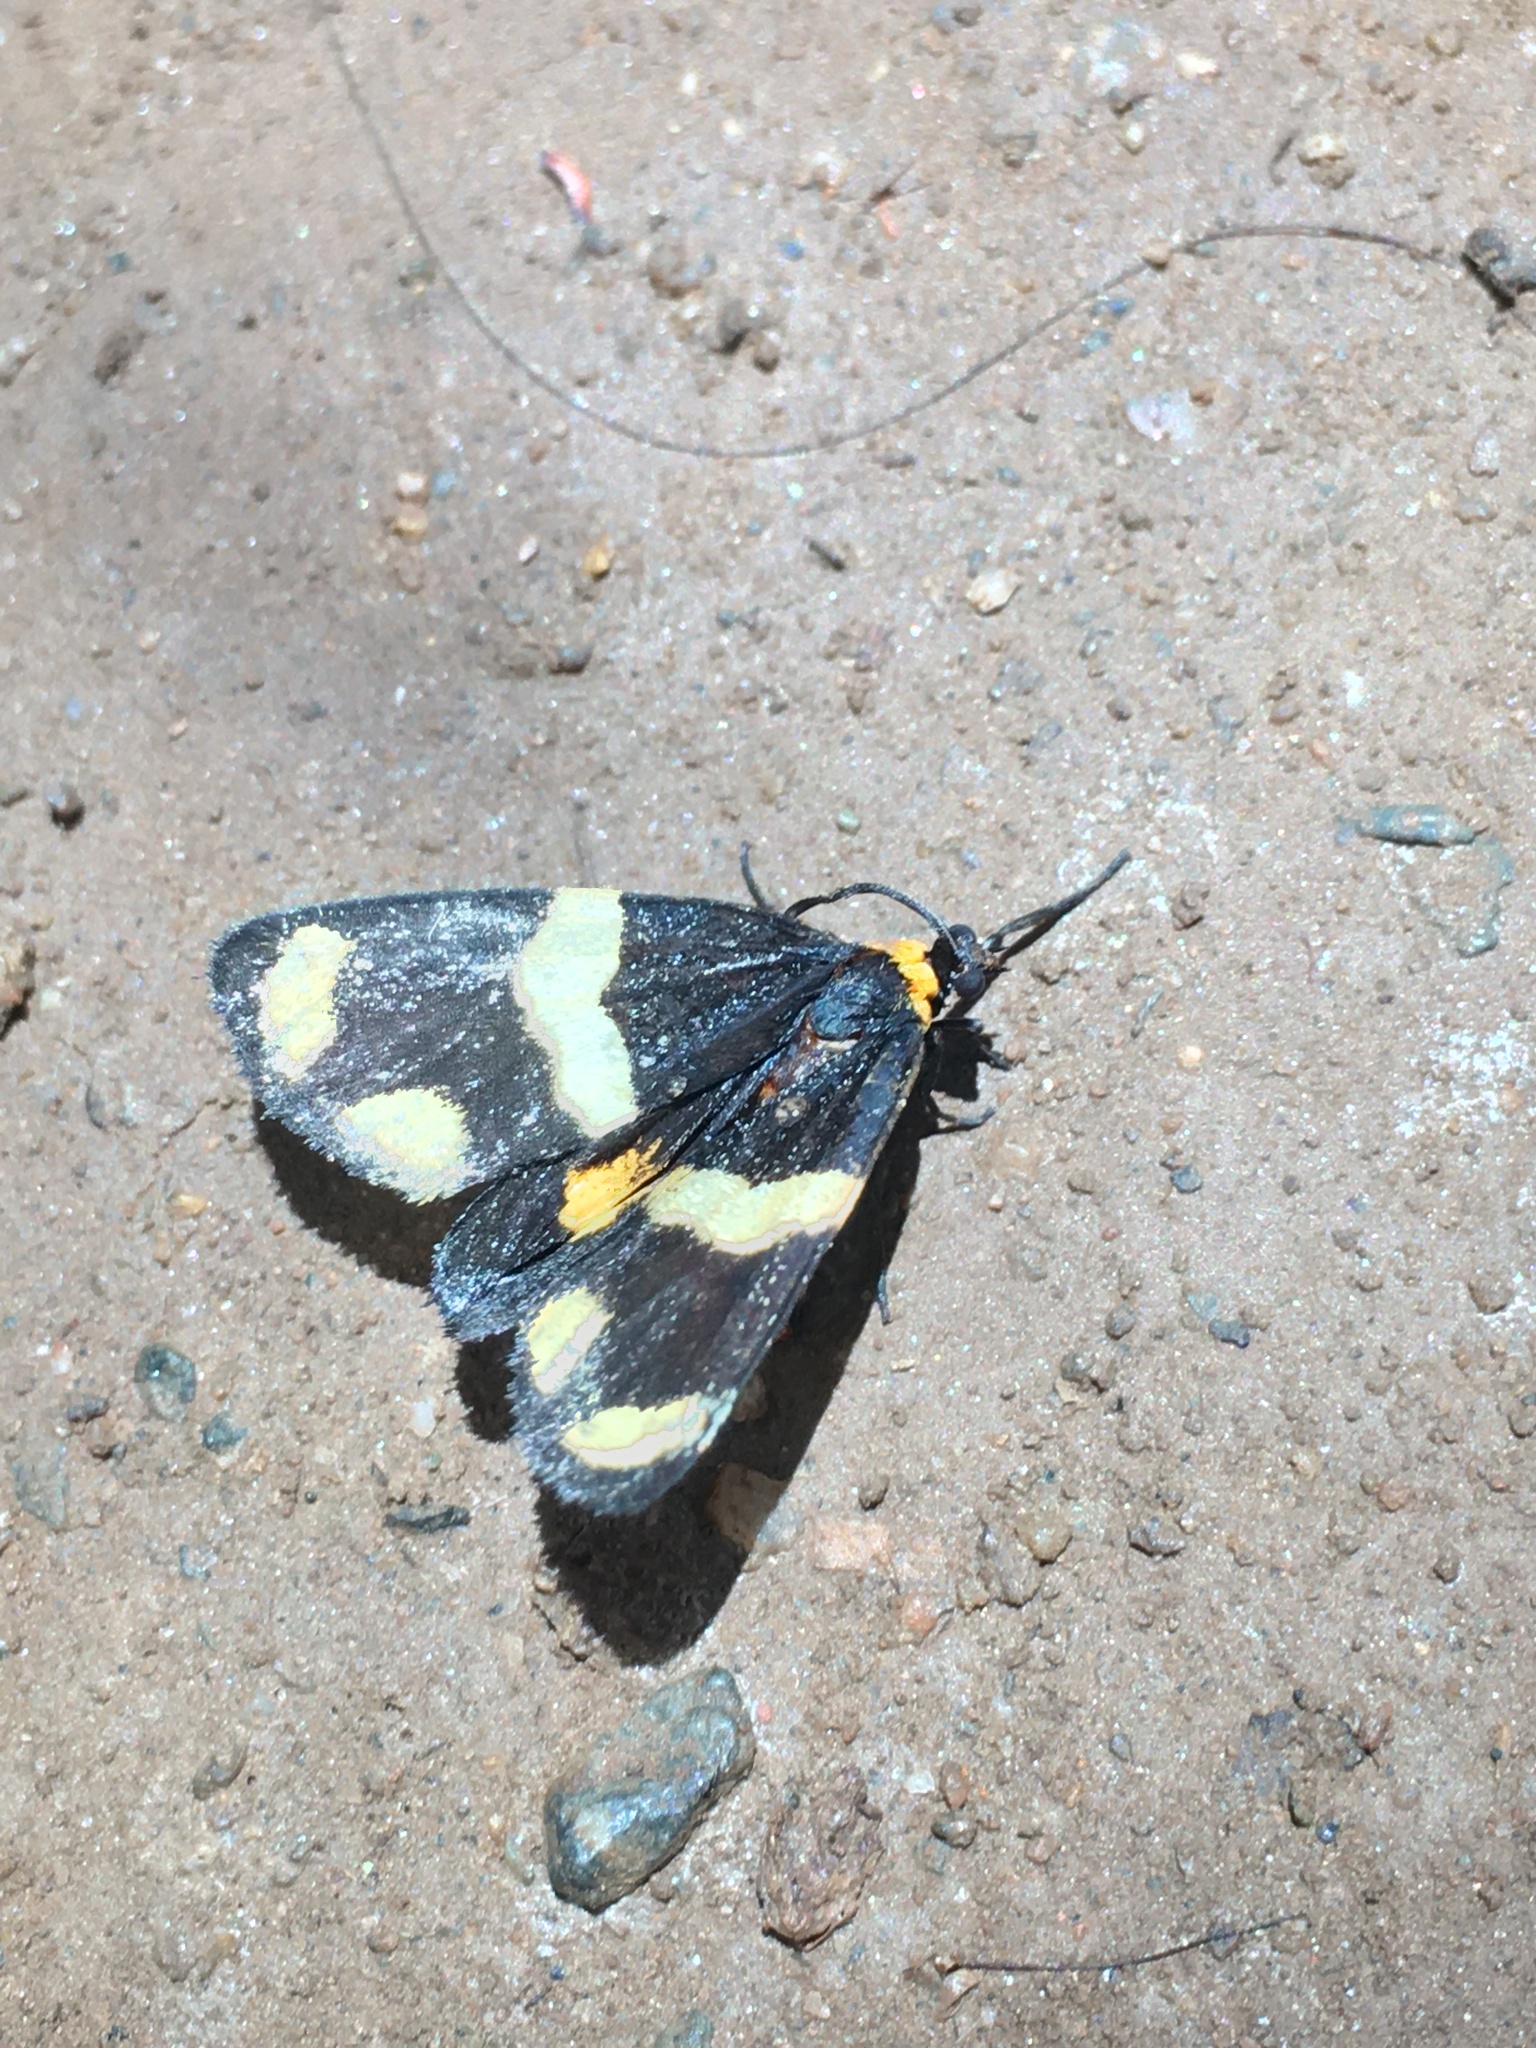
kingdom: Animalia
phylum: Arthropoda
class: Insecta
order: Lepidoptera
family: Erebidae
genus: Eudesmia
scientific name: Eudesmia
